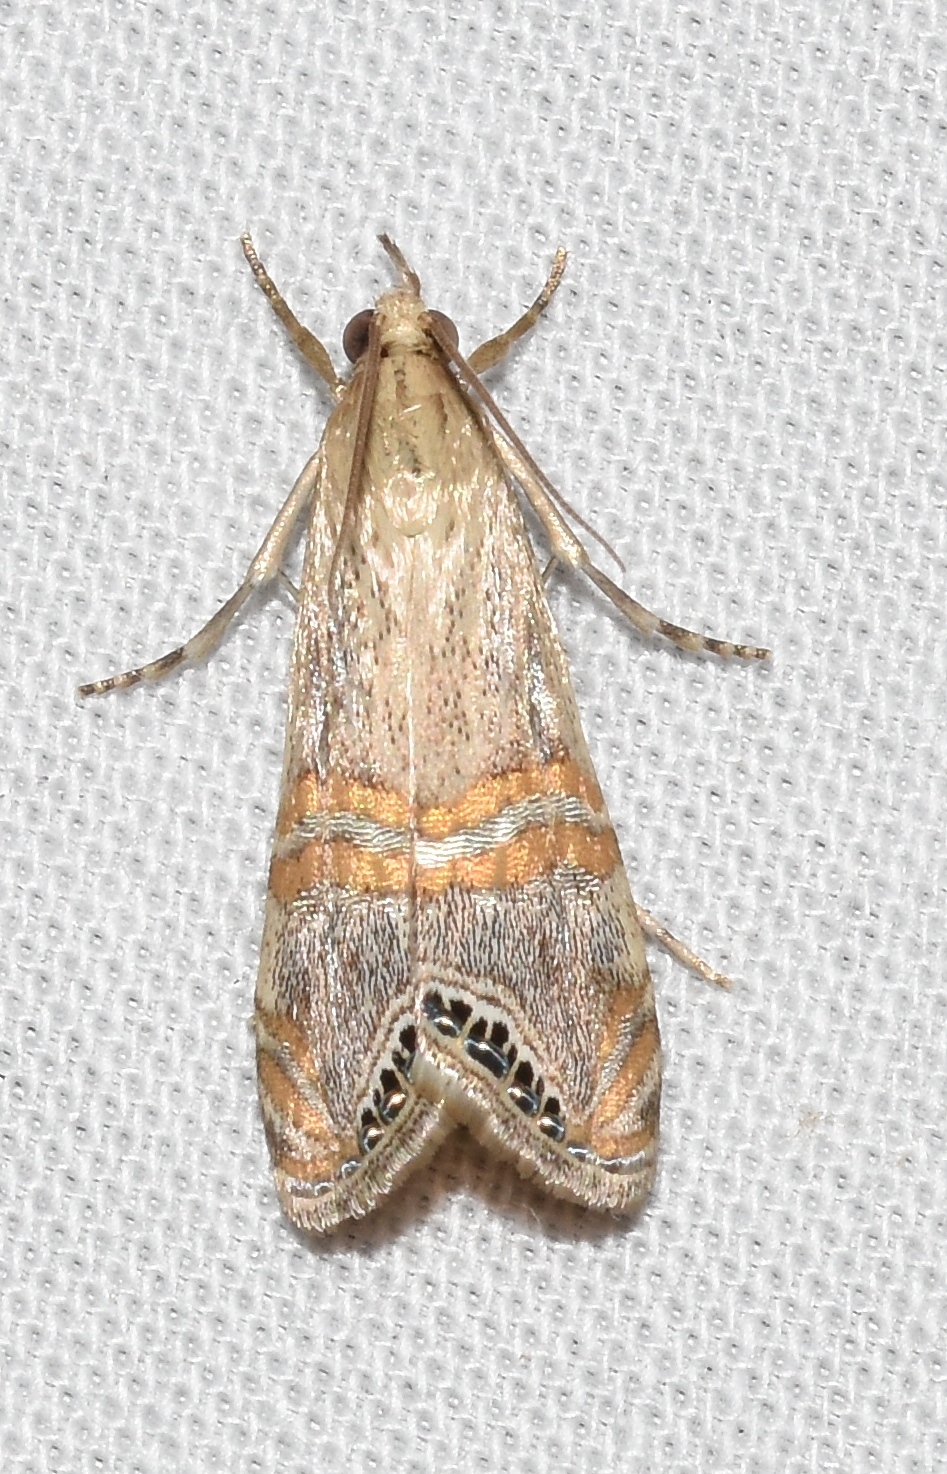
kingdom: Animalia
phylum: Arthropoda
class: Insecta
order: Lepidoptera
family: Crambidae
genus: Euchromius
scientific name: Euchromius ocellea
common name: Necklace veneer moth
